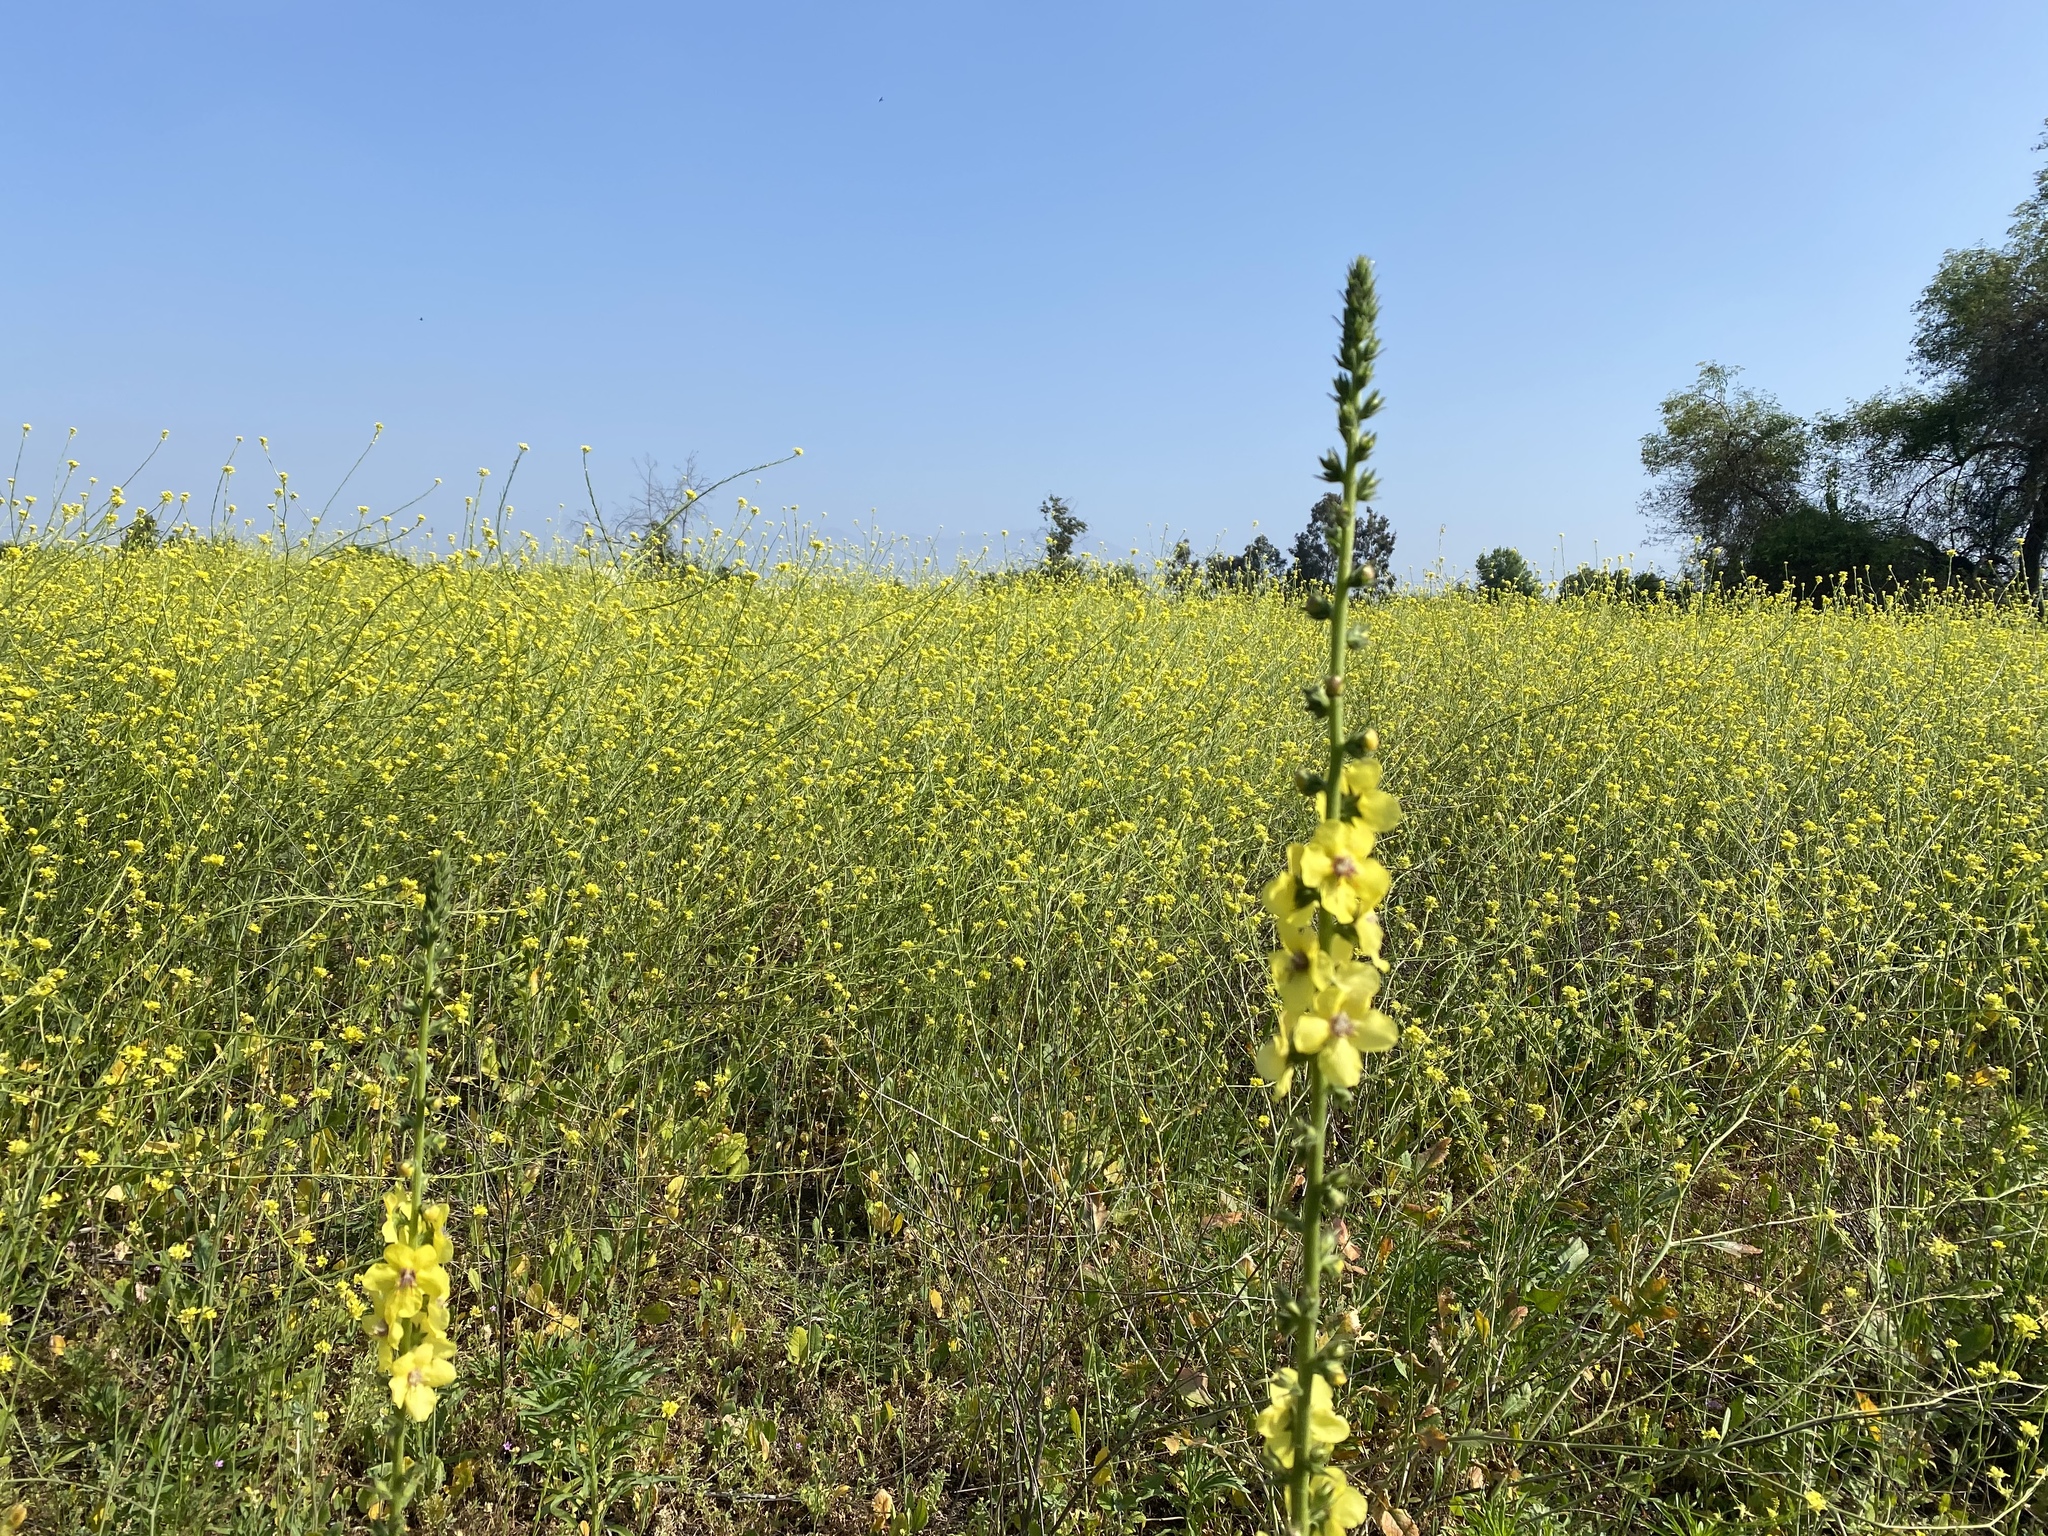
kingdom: Plantae
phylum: Tracheophyta
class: Magnoliopsida
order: Lamiales
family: Scrophulariaceae
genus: Verbascum
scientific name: Verbascum virgatum
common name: Twiggy mullein
